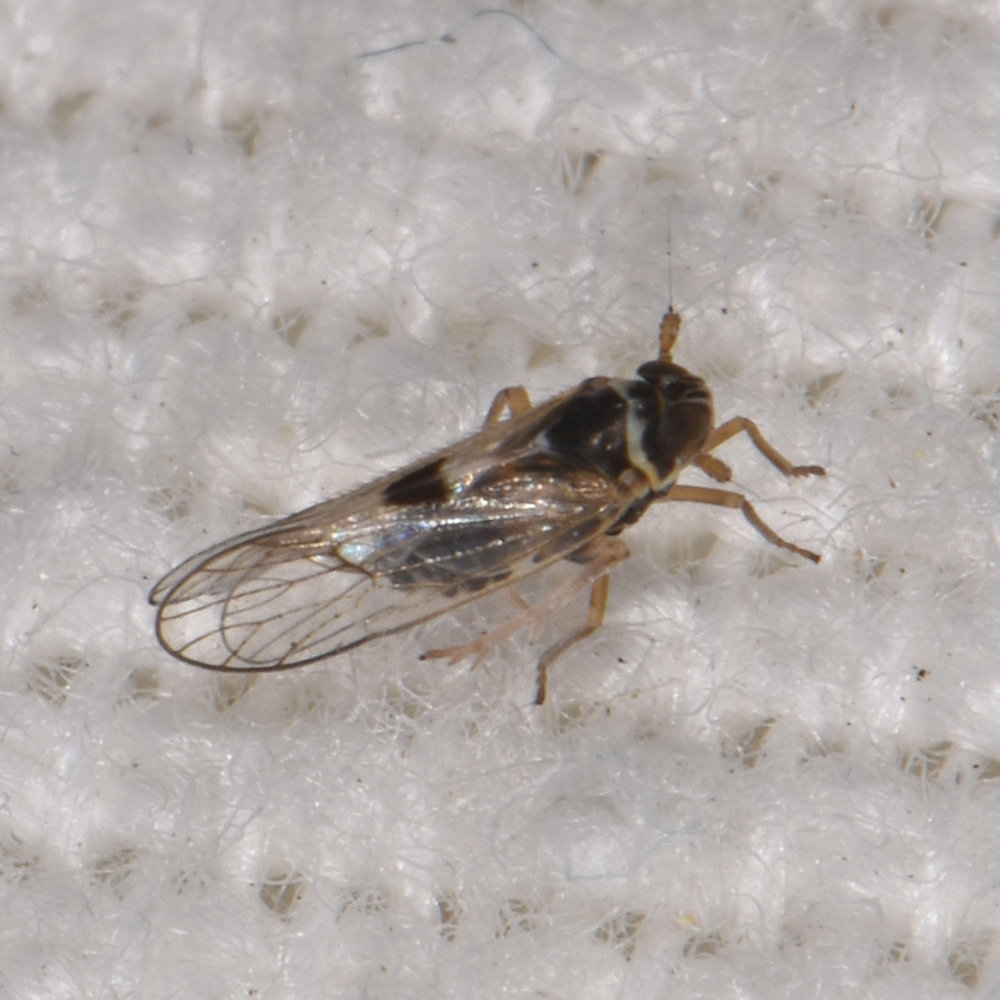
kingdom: Animalia
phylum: Arthropoda
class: Insecta
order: Hemiptera
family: Delphacidae
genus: Chionomus
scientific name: Chionomus
